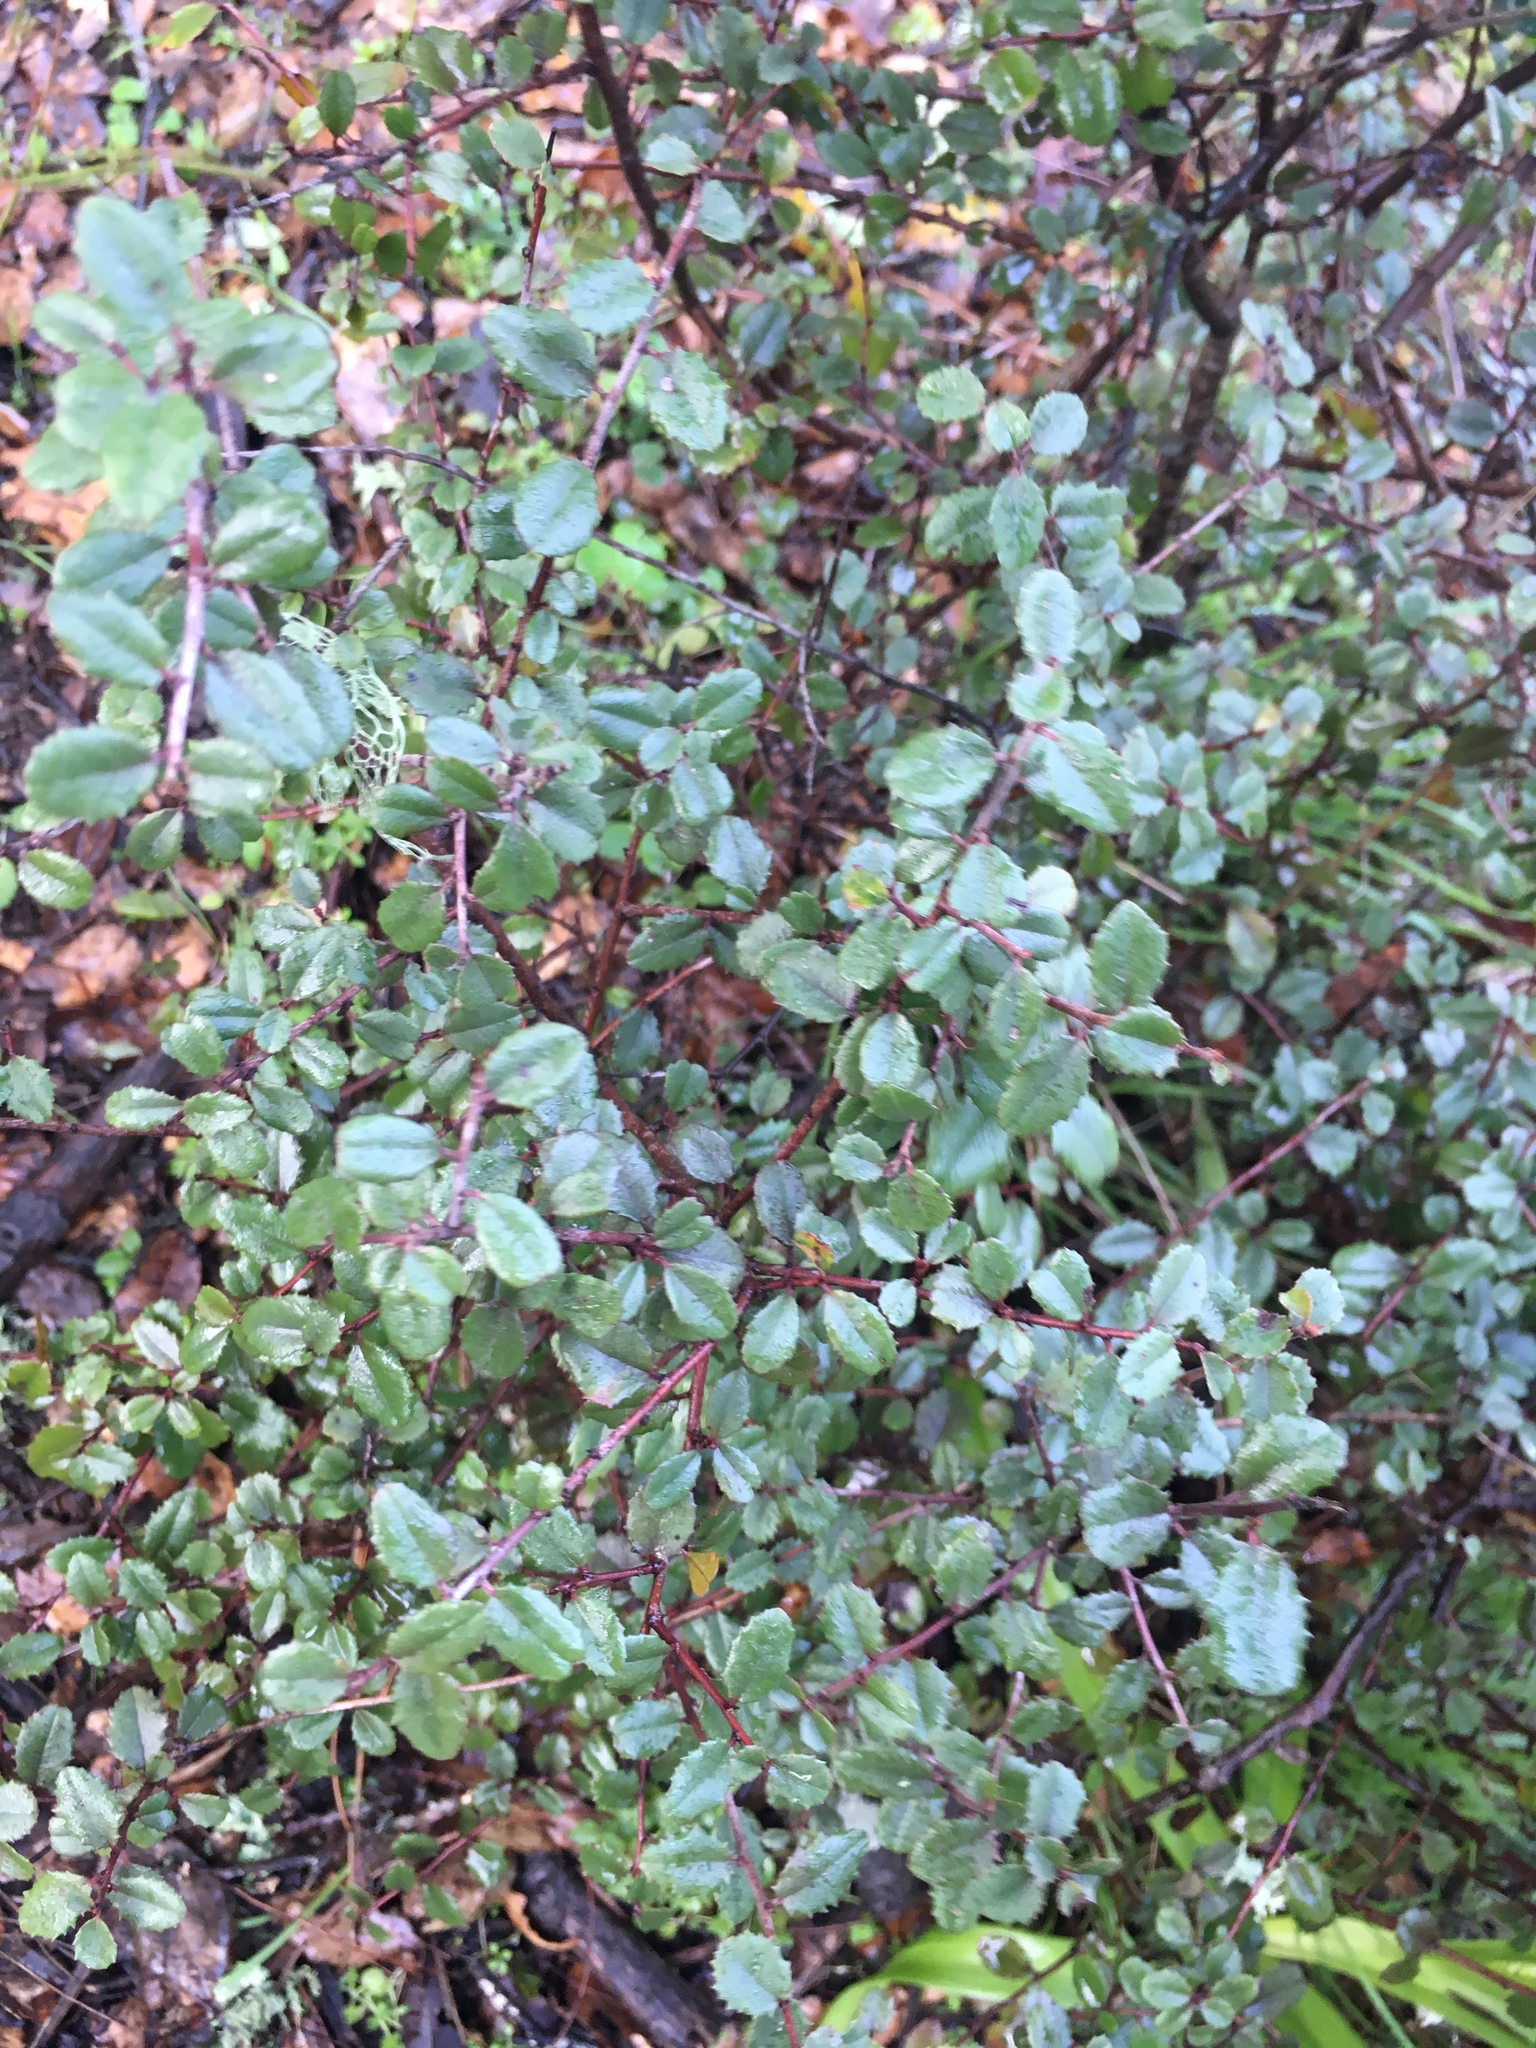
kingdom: Plantae
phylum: Tracheophyta
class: Magnoliopsida
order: Rosales
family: Rhamnaceae
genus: Endotropis
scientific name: Endotropis crocea
